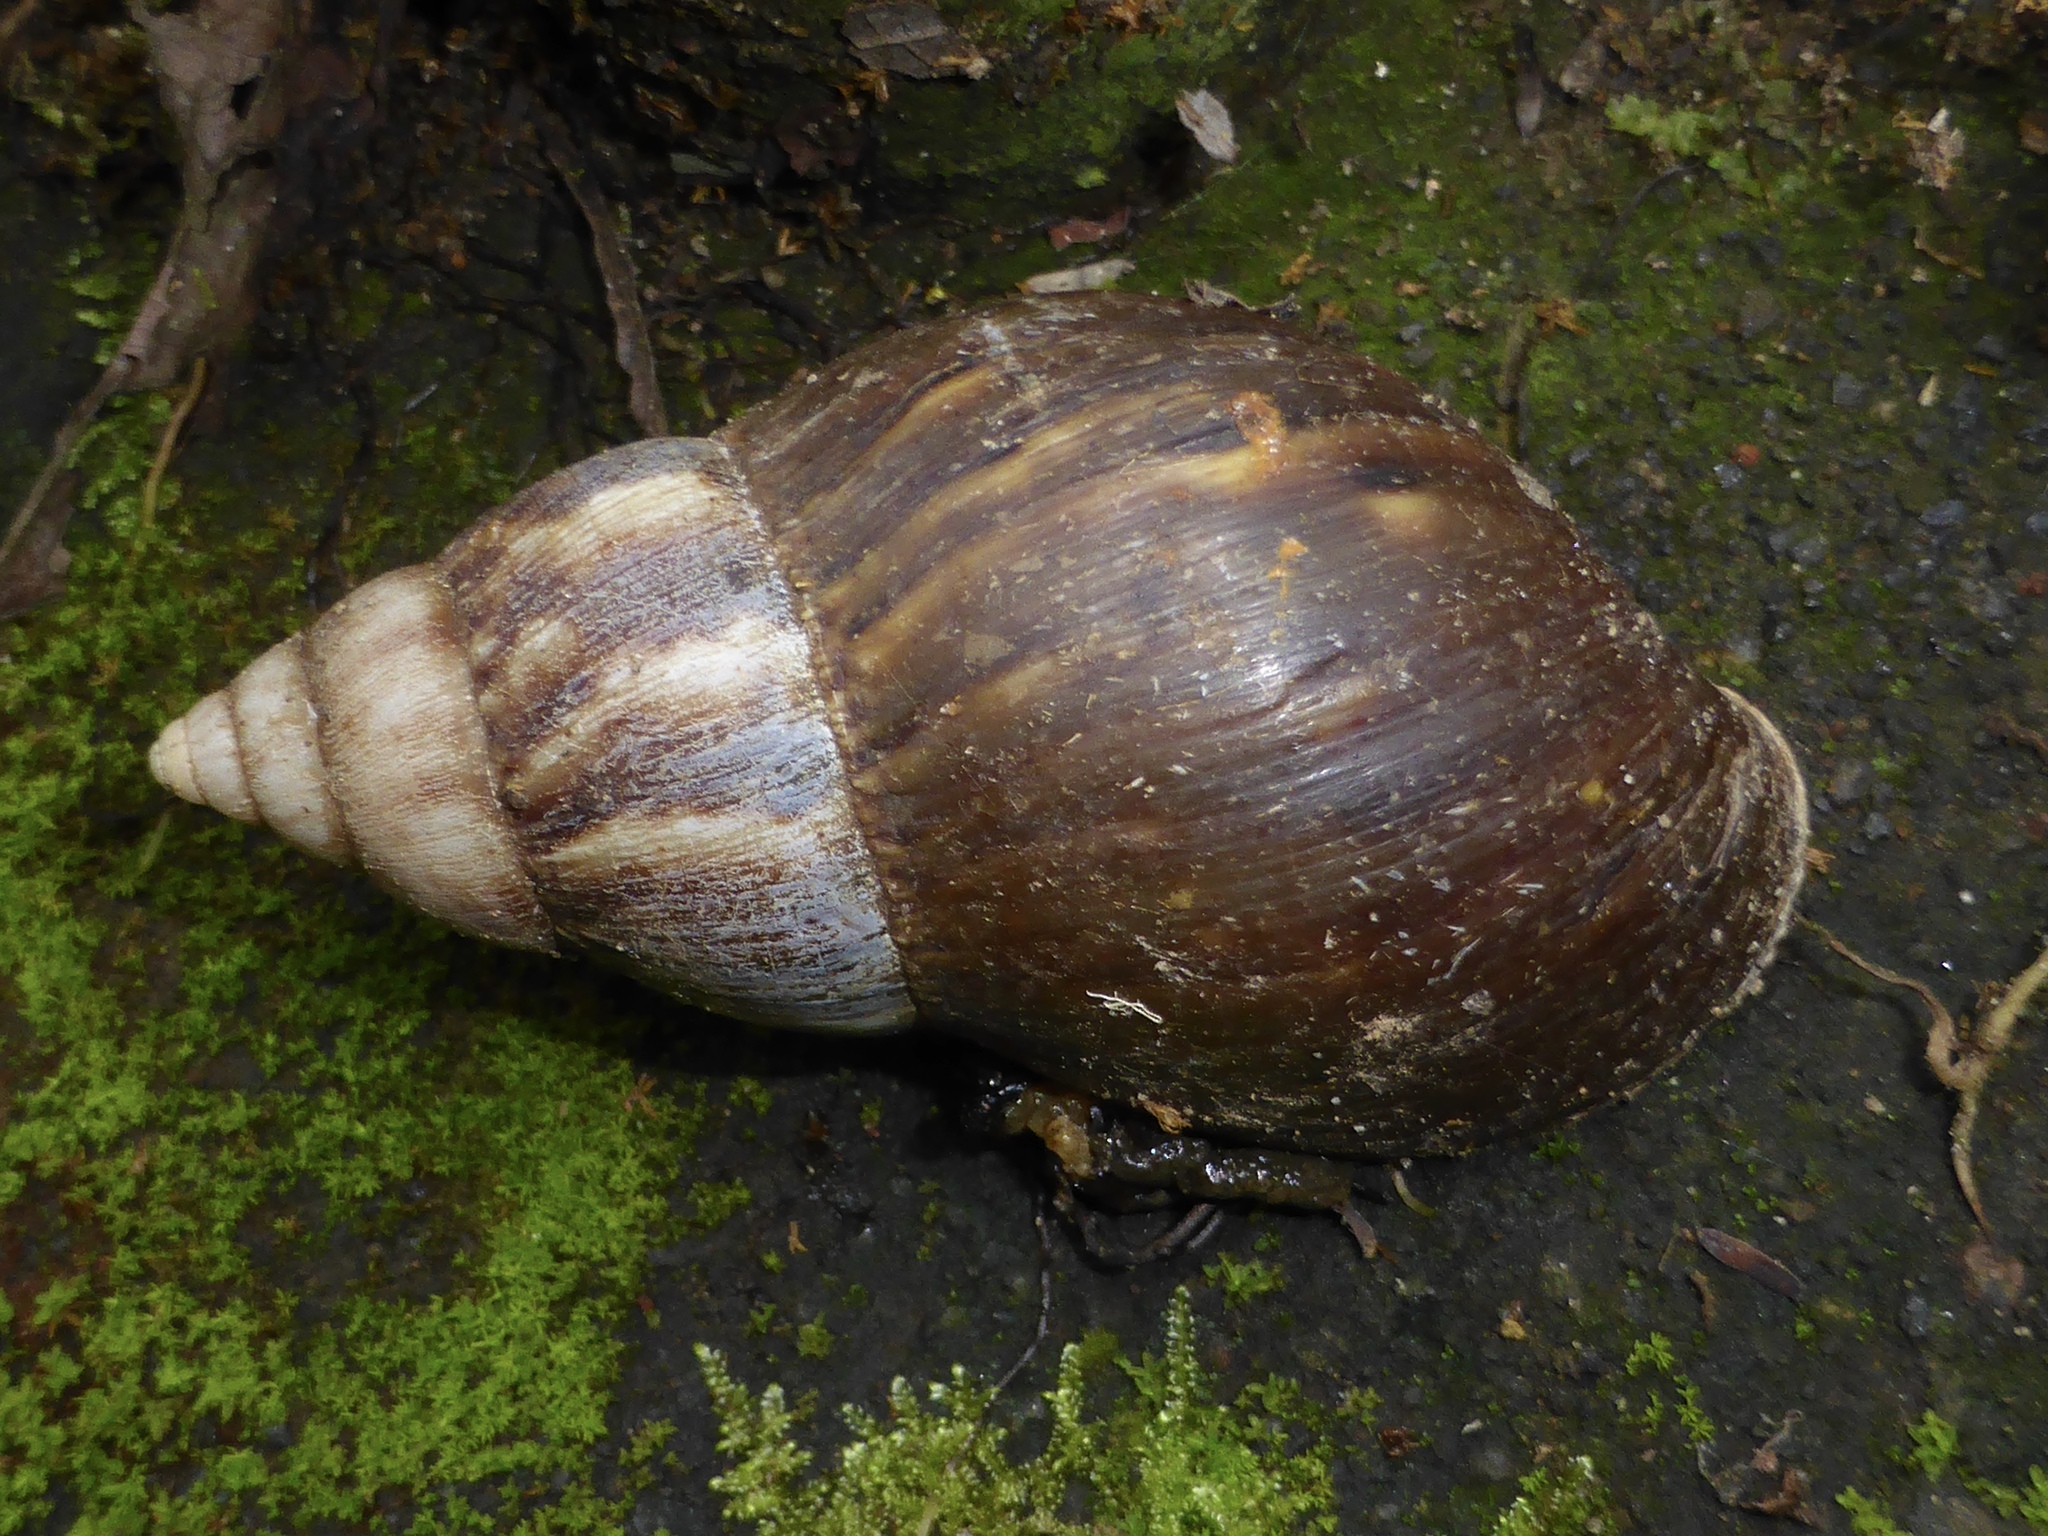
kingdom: Animalia
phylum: Mollusca
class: Gastropoda
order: Stylommatophora
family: Achatinidae
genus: Lissachatina
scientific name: Lissachatina fulica
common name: Giant african snail
